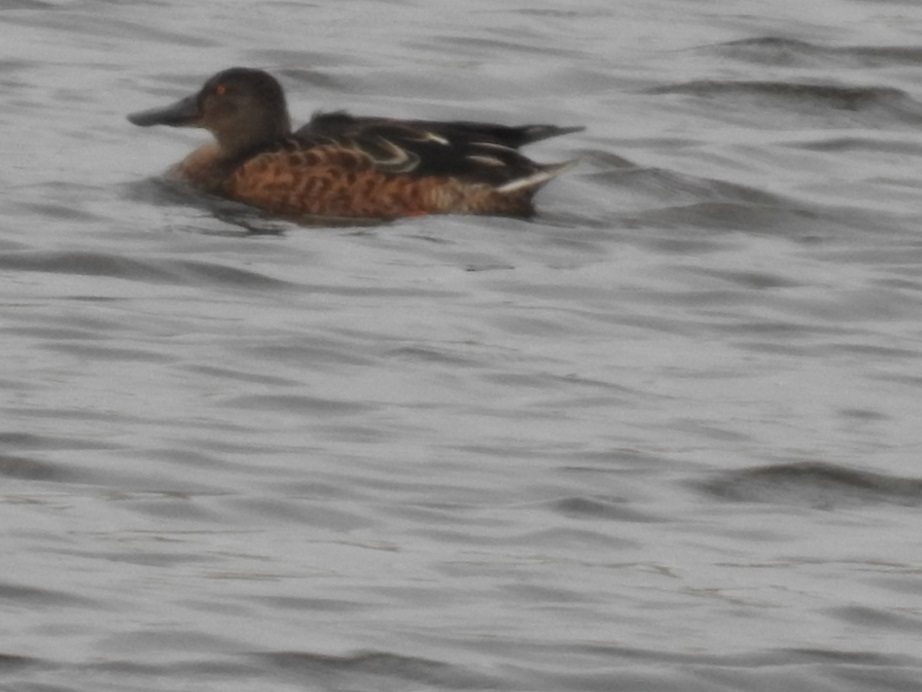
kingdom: Animalia
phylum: Chordata
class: Aves
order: Anseriformes
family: Anatidae
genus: Spatula
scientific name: Spatula clypeata
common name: Northern shoveler
